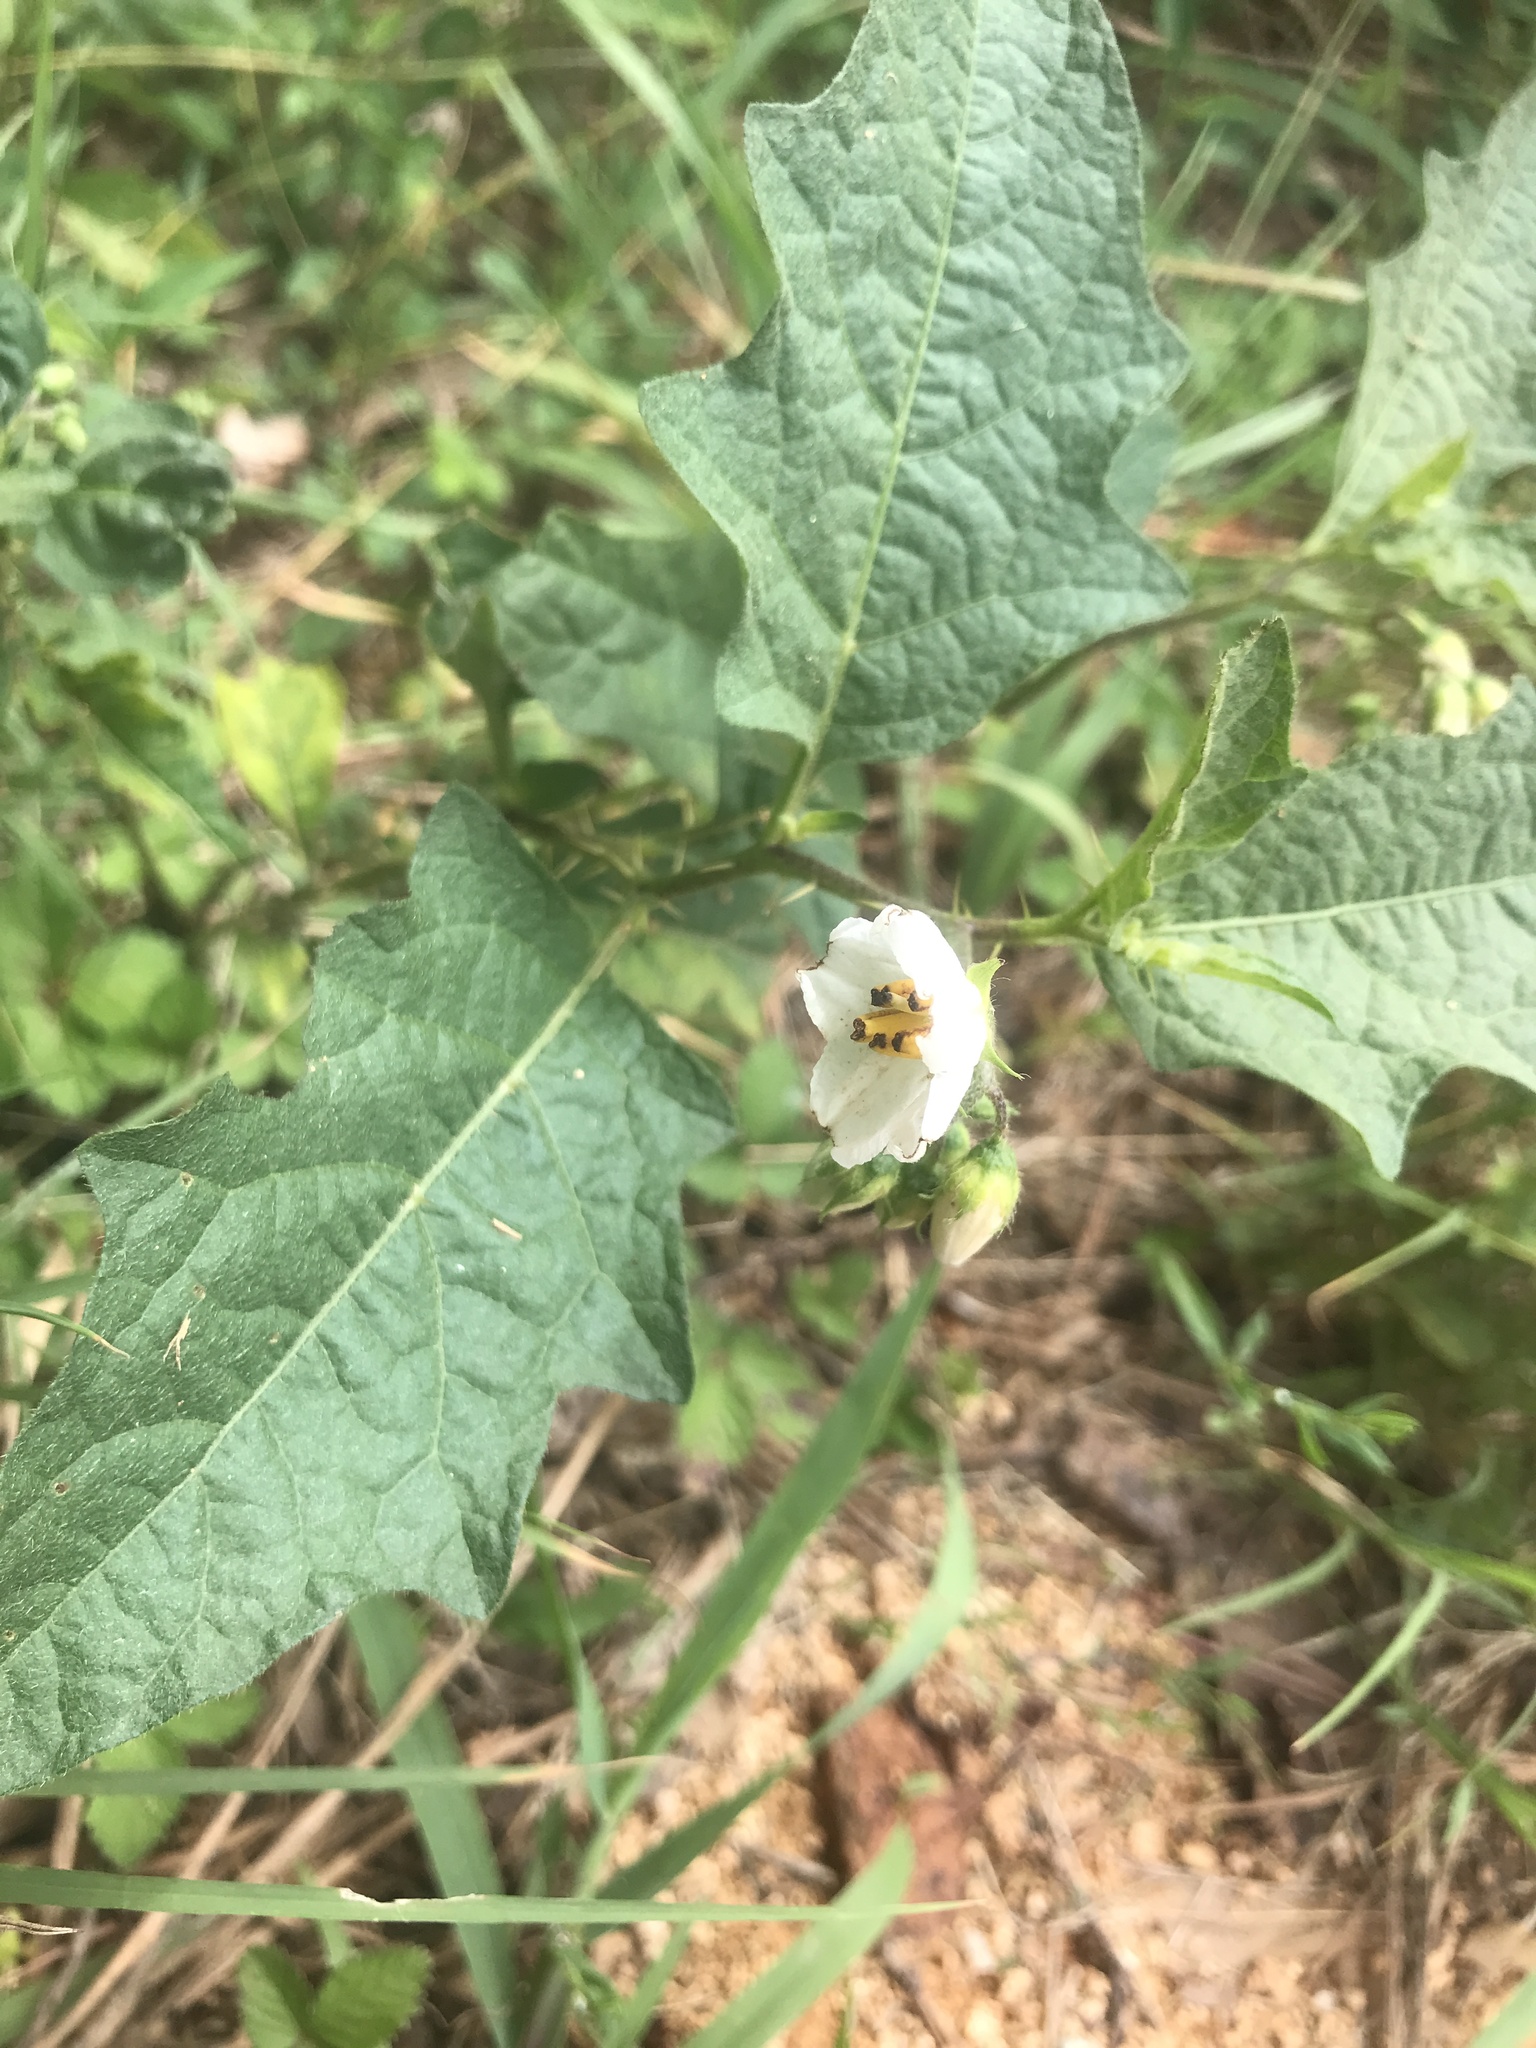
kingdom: Plantae
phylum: Tracheophyta
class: Magnoliopsida
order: Solanales
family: Solanaceae
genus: Solanum
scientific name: Solanum carolinense
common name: Horse-nettle
